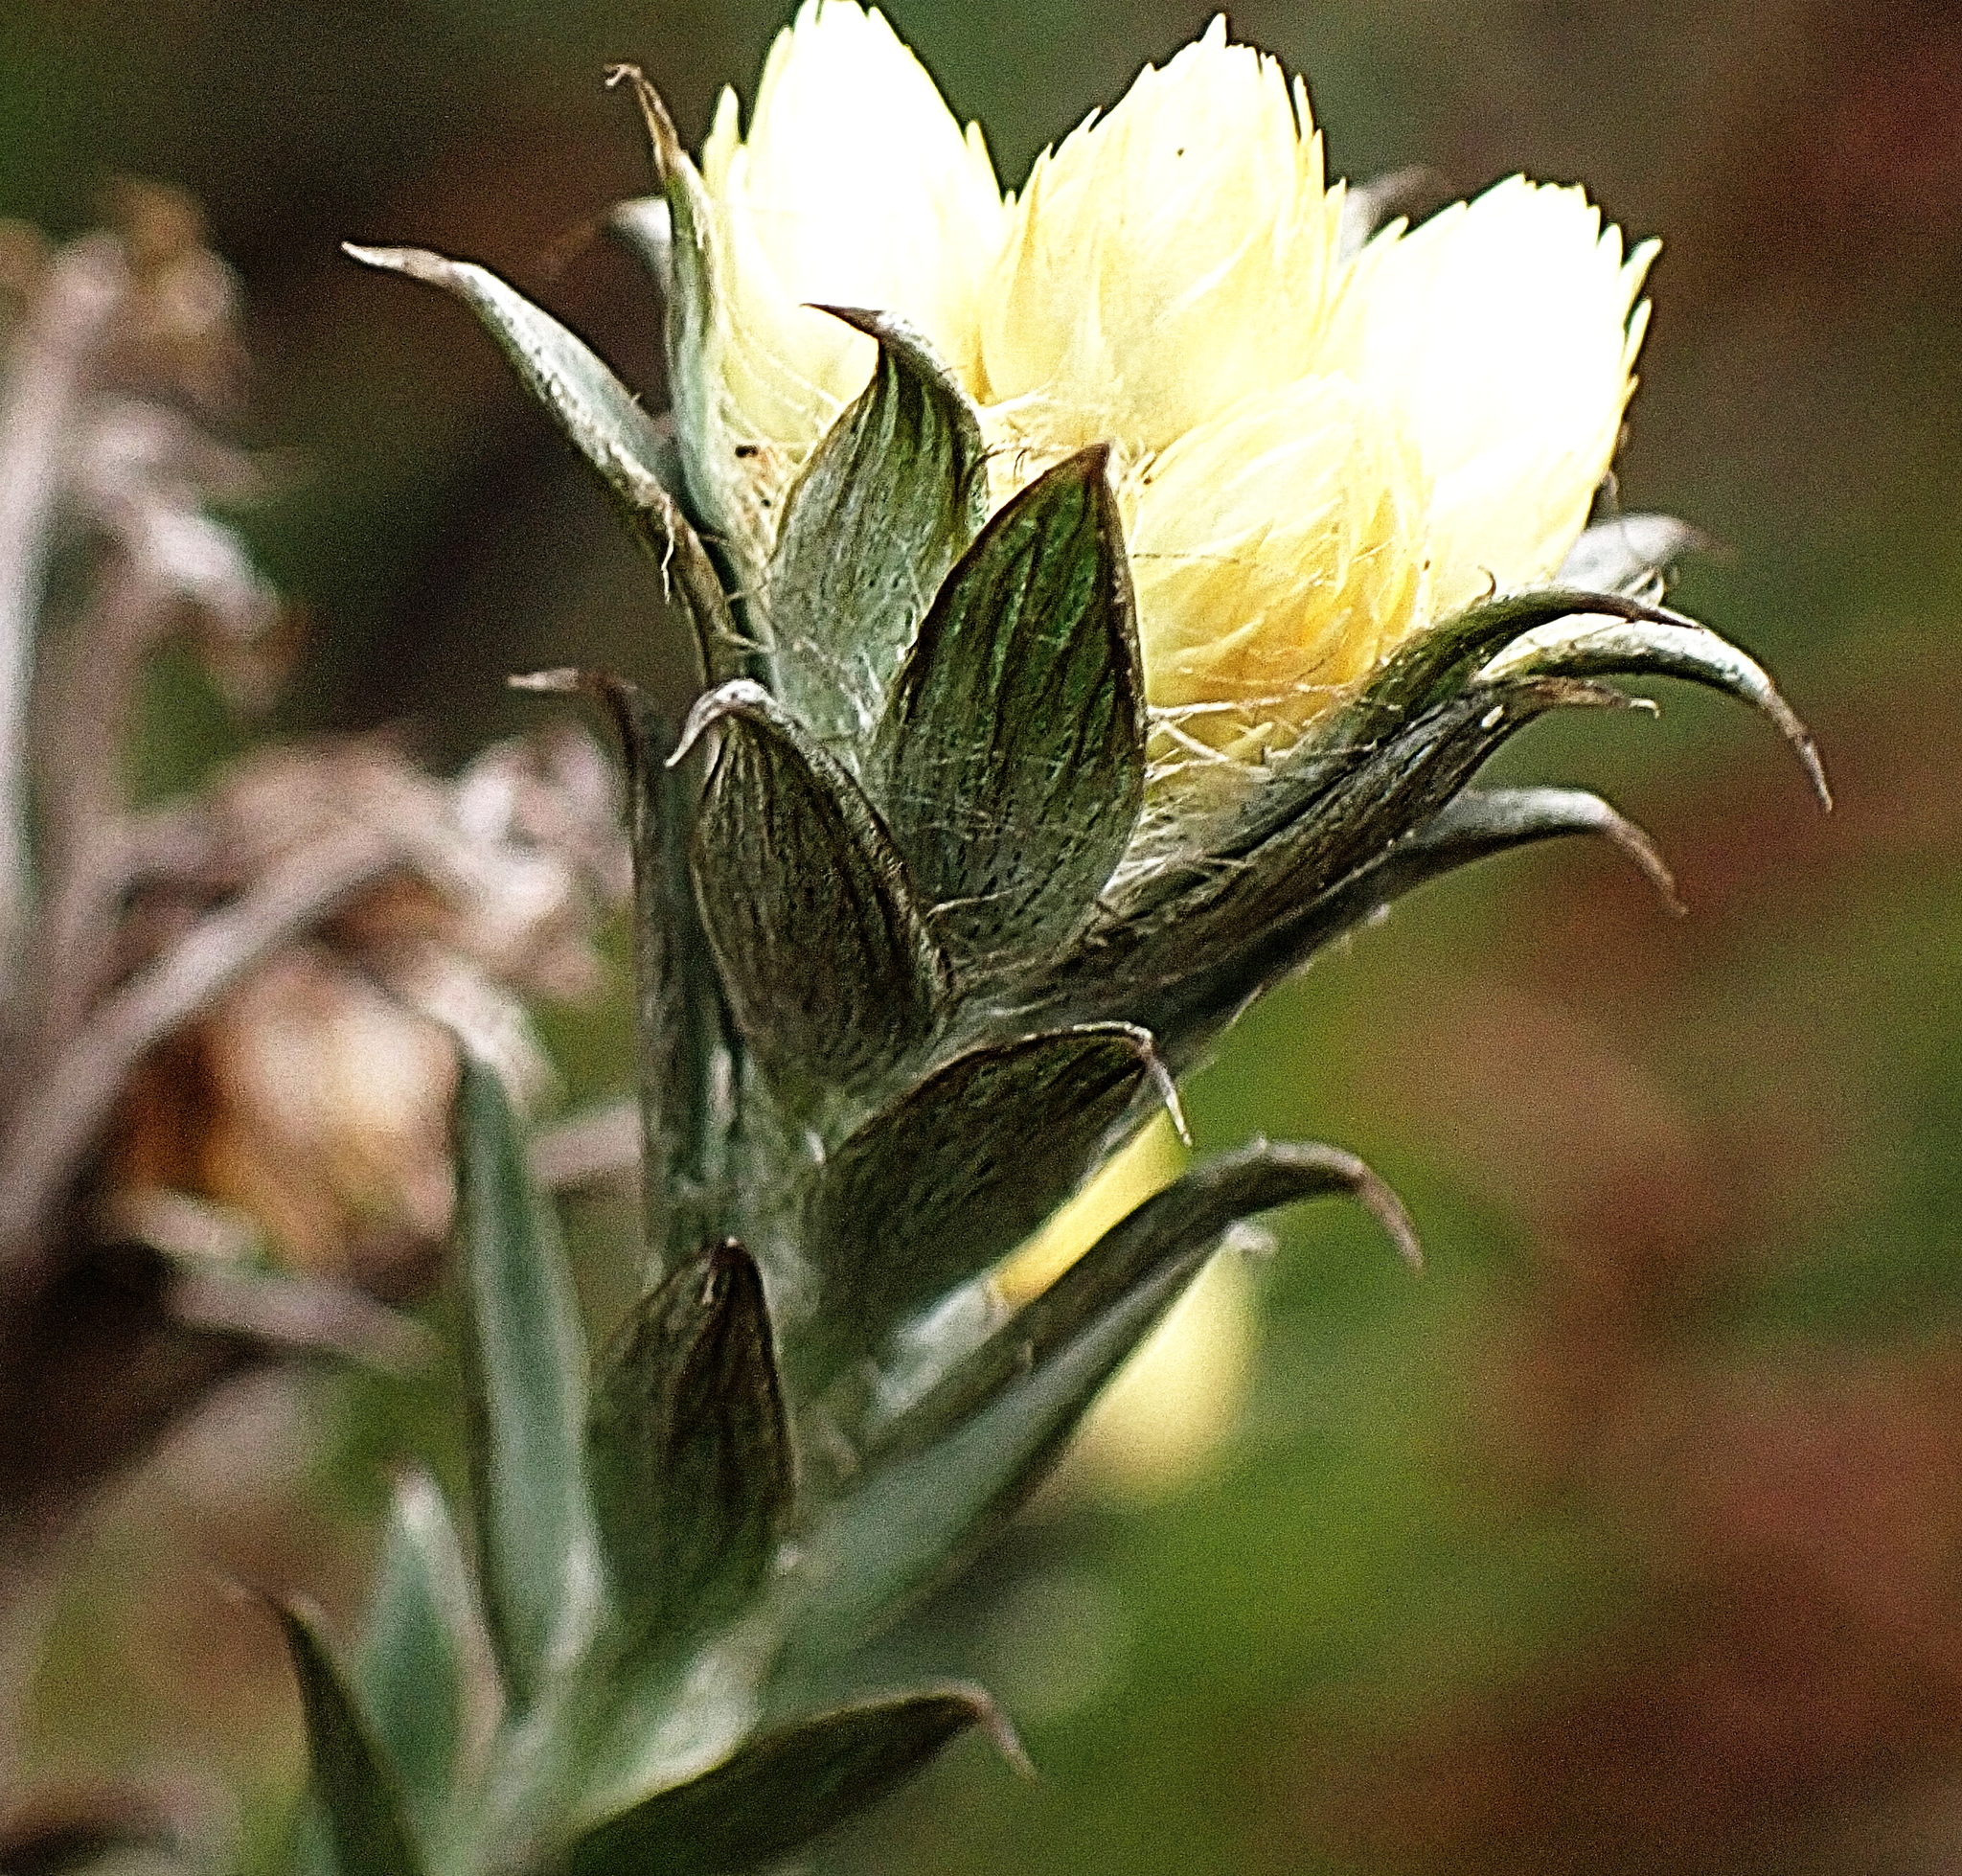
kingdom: Plantae
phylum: Tracheophyta
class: Magnoliopsida
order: Asterales
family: Asteraceae
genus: Achyranthemum
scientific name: Achyranthemum paniculatum
